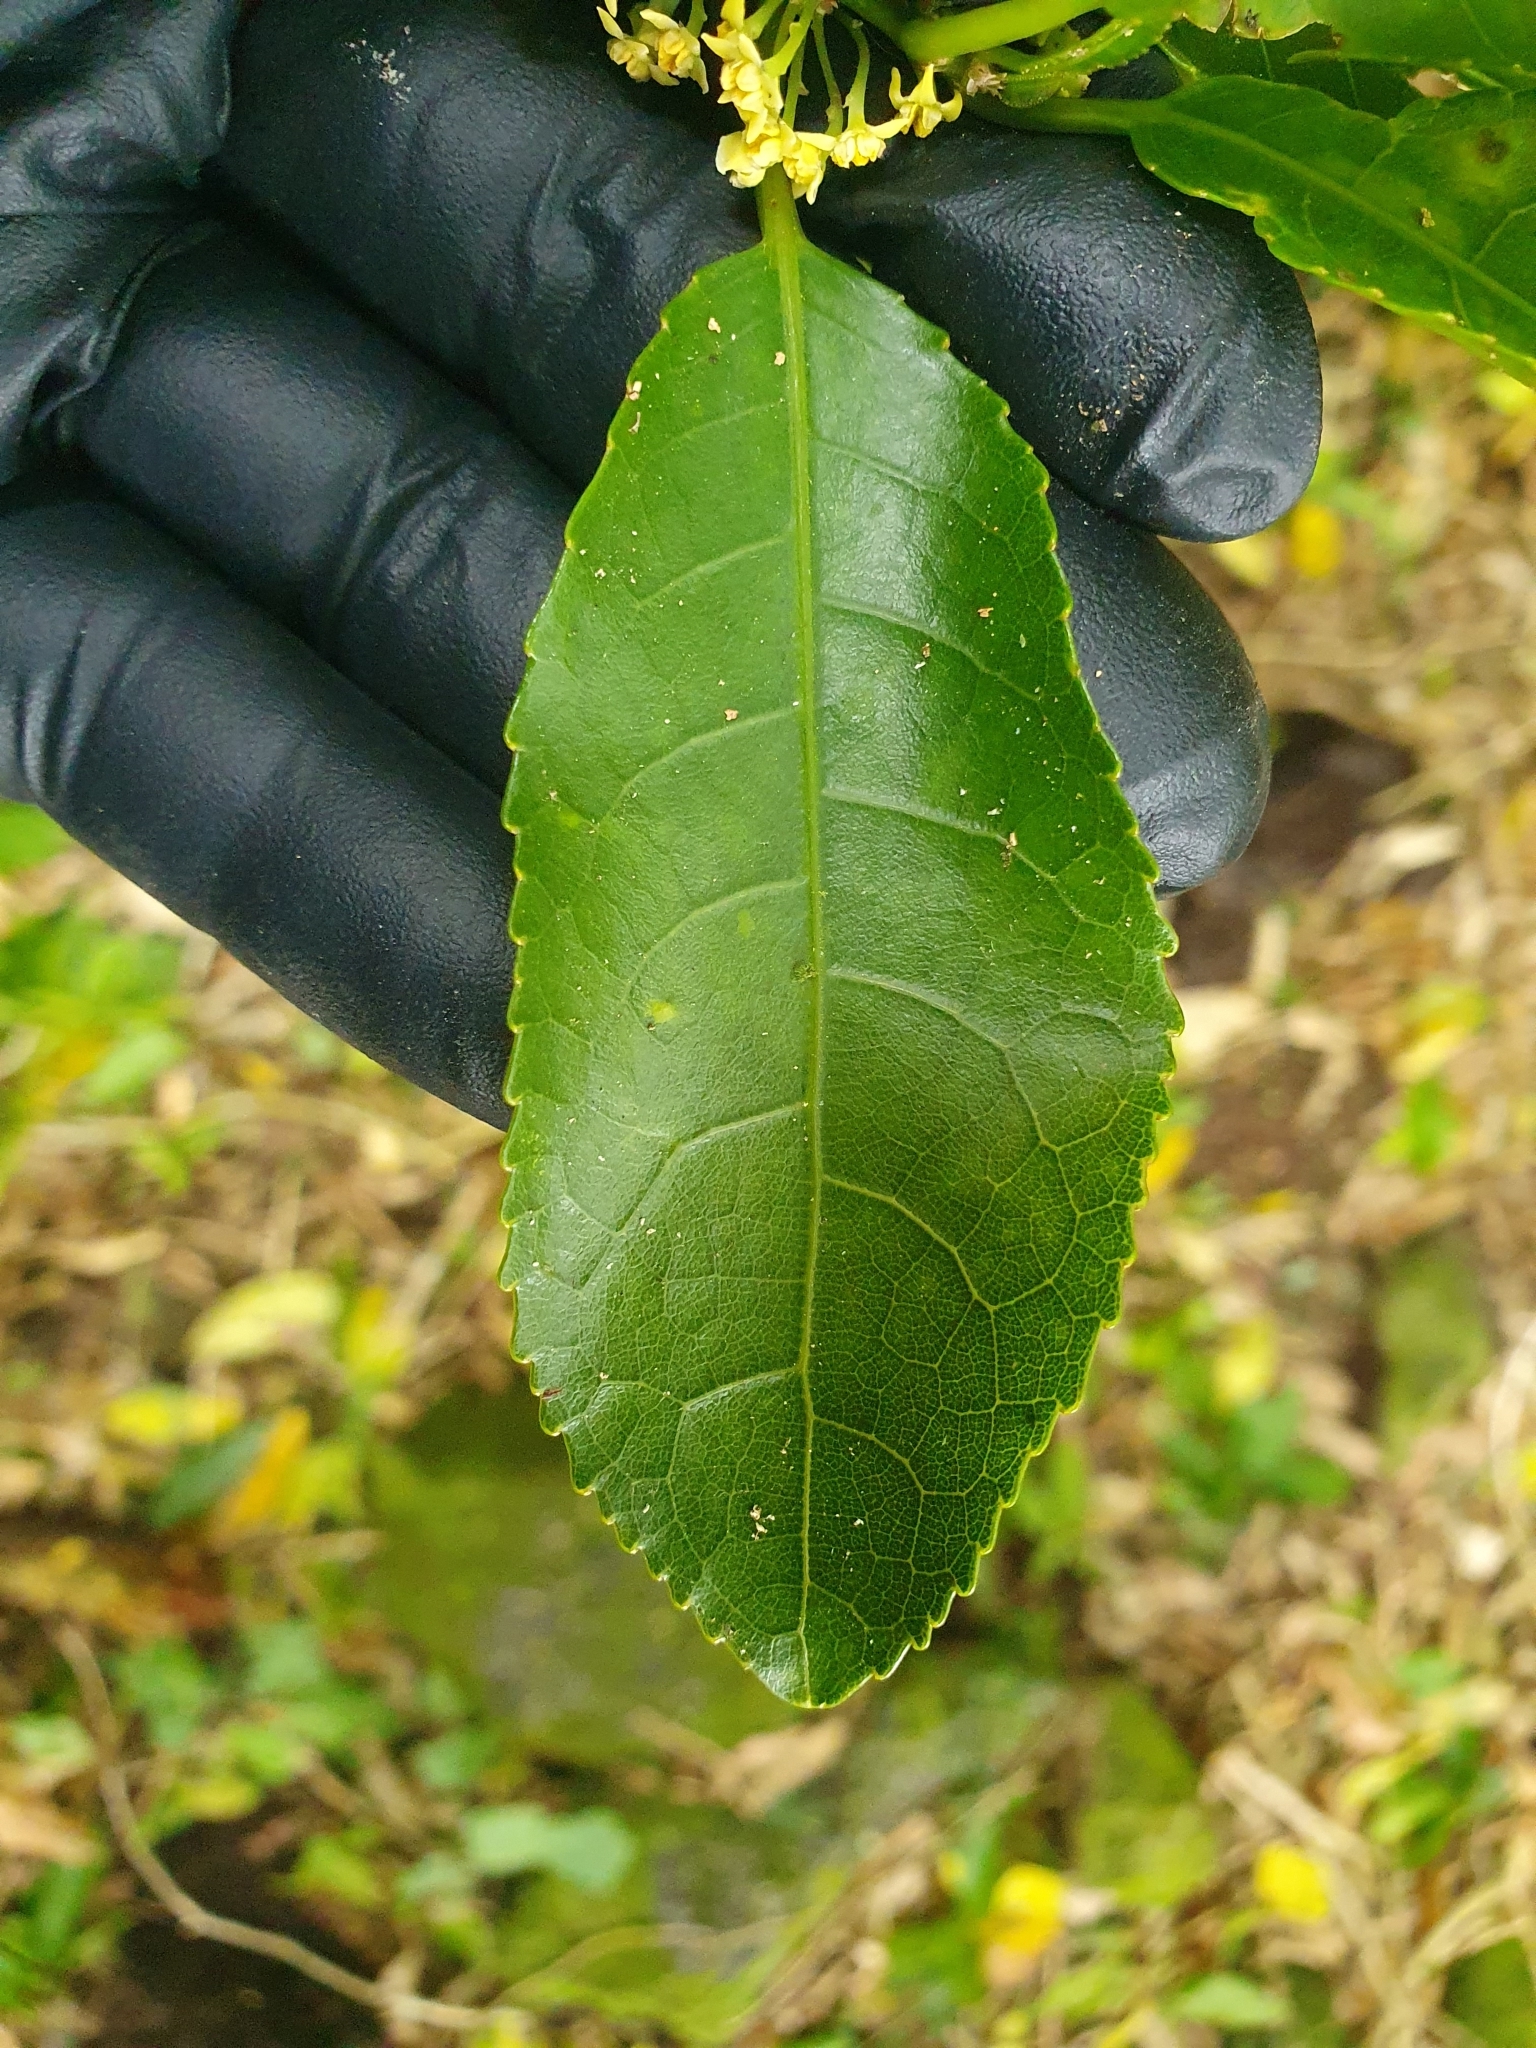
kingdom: Plantae
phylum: Tracheophyta
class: Magnoliopsida
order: Malpighiales
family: Violaceae
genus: Melicytus
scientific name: Melicytus ramiflorus
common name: Mahoe
